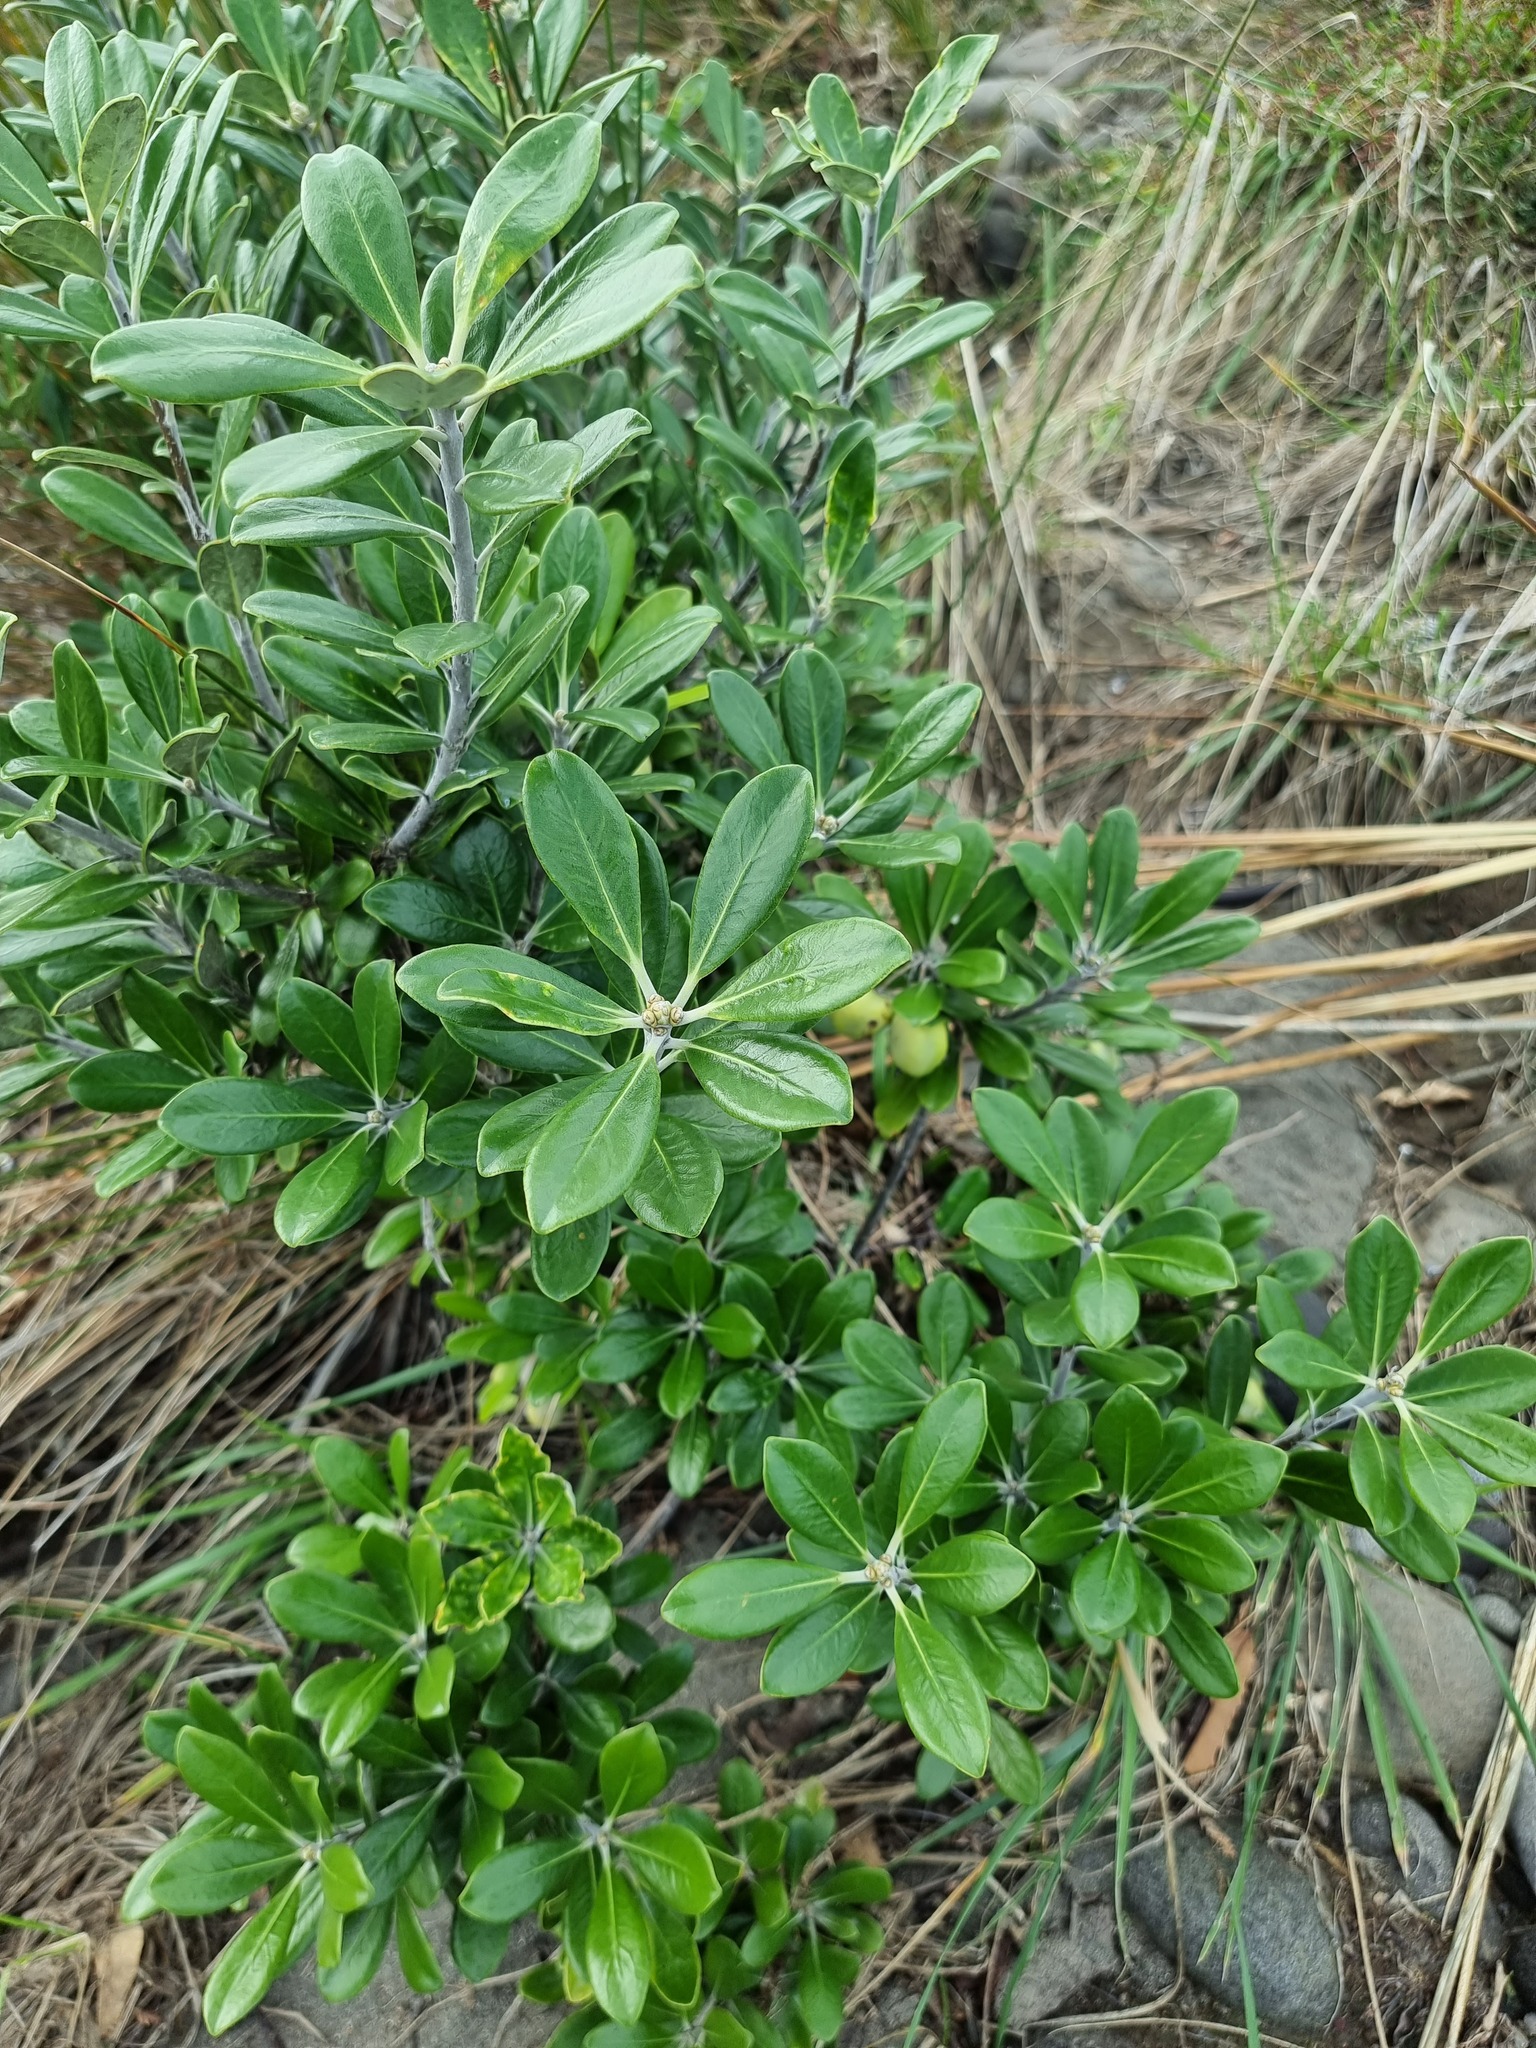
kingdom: Plantae
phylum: Tracheophyta
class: Magnoliopsida
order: Apiales
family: Pittosporaceae
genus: Pittosporum
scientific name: Pittosporum crassifolium
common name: Karo
